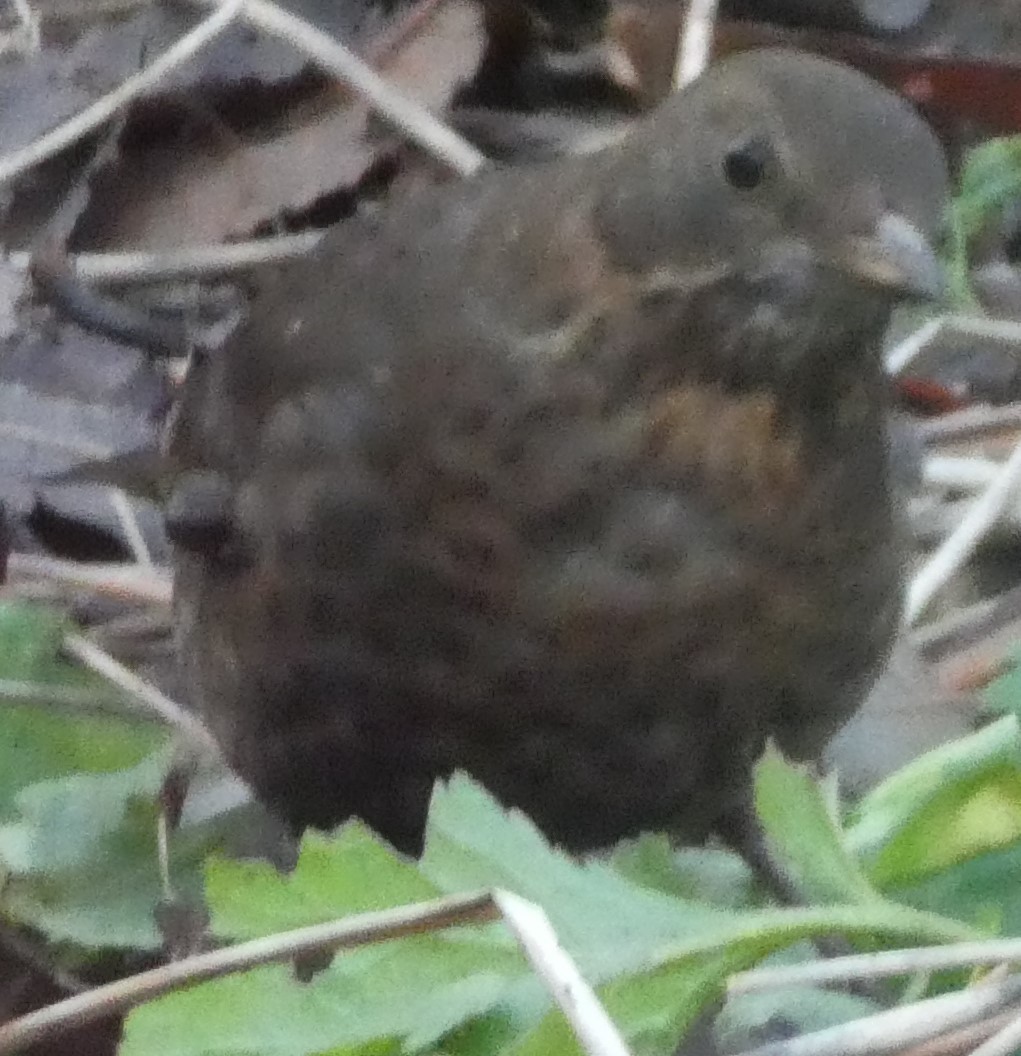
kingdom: Animalia
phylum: Chordata
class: Aves
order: Passeriformes
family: Turdidae
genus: Turdus
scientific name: Turdus merula
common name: Common blackbird
